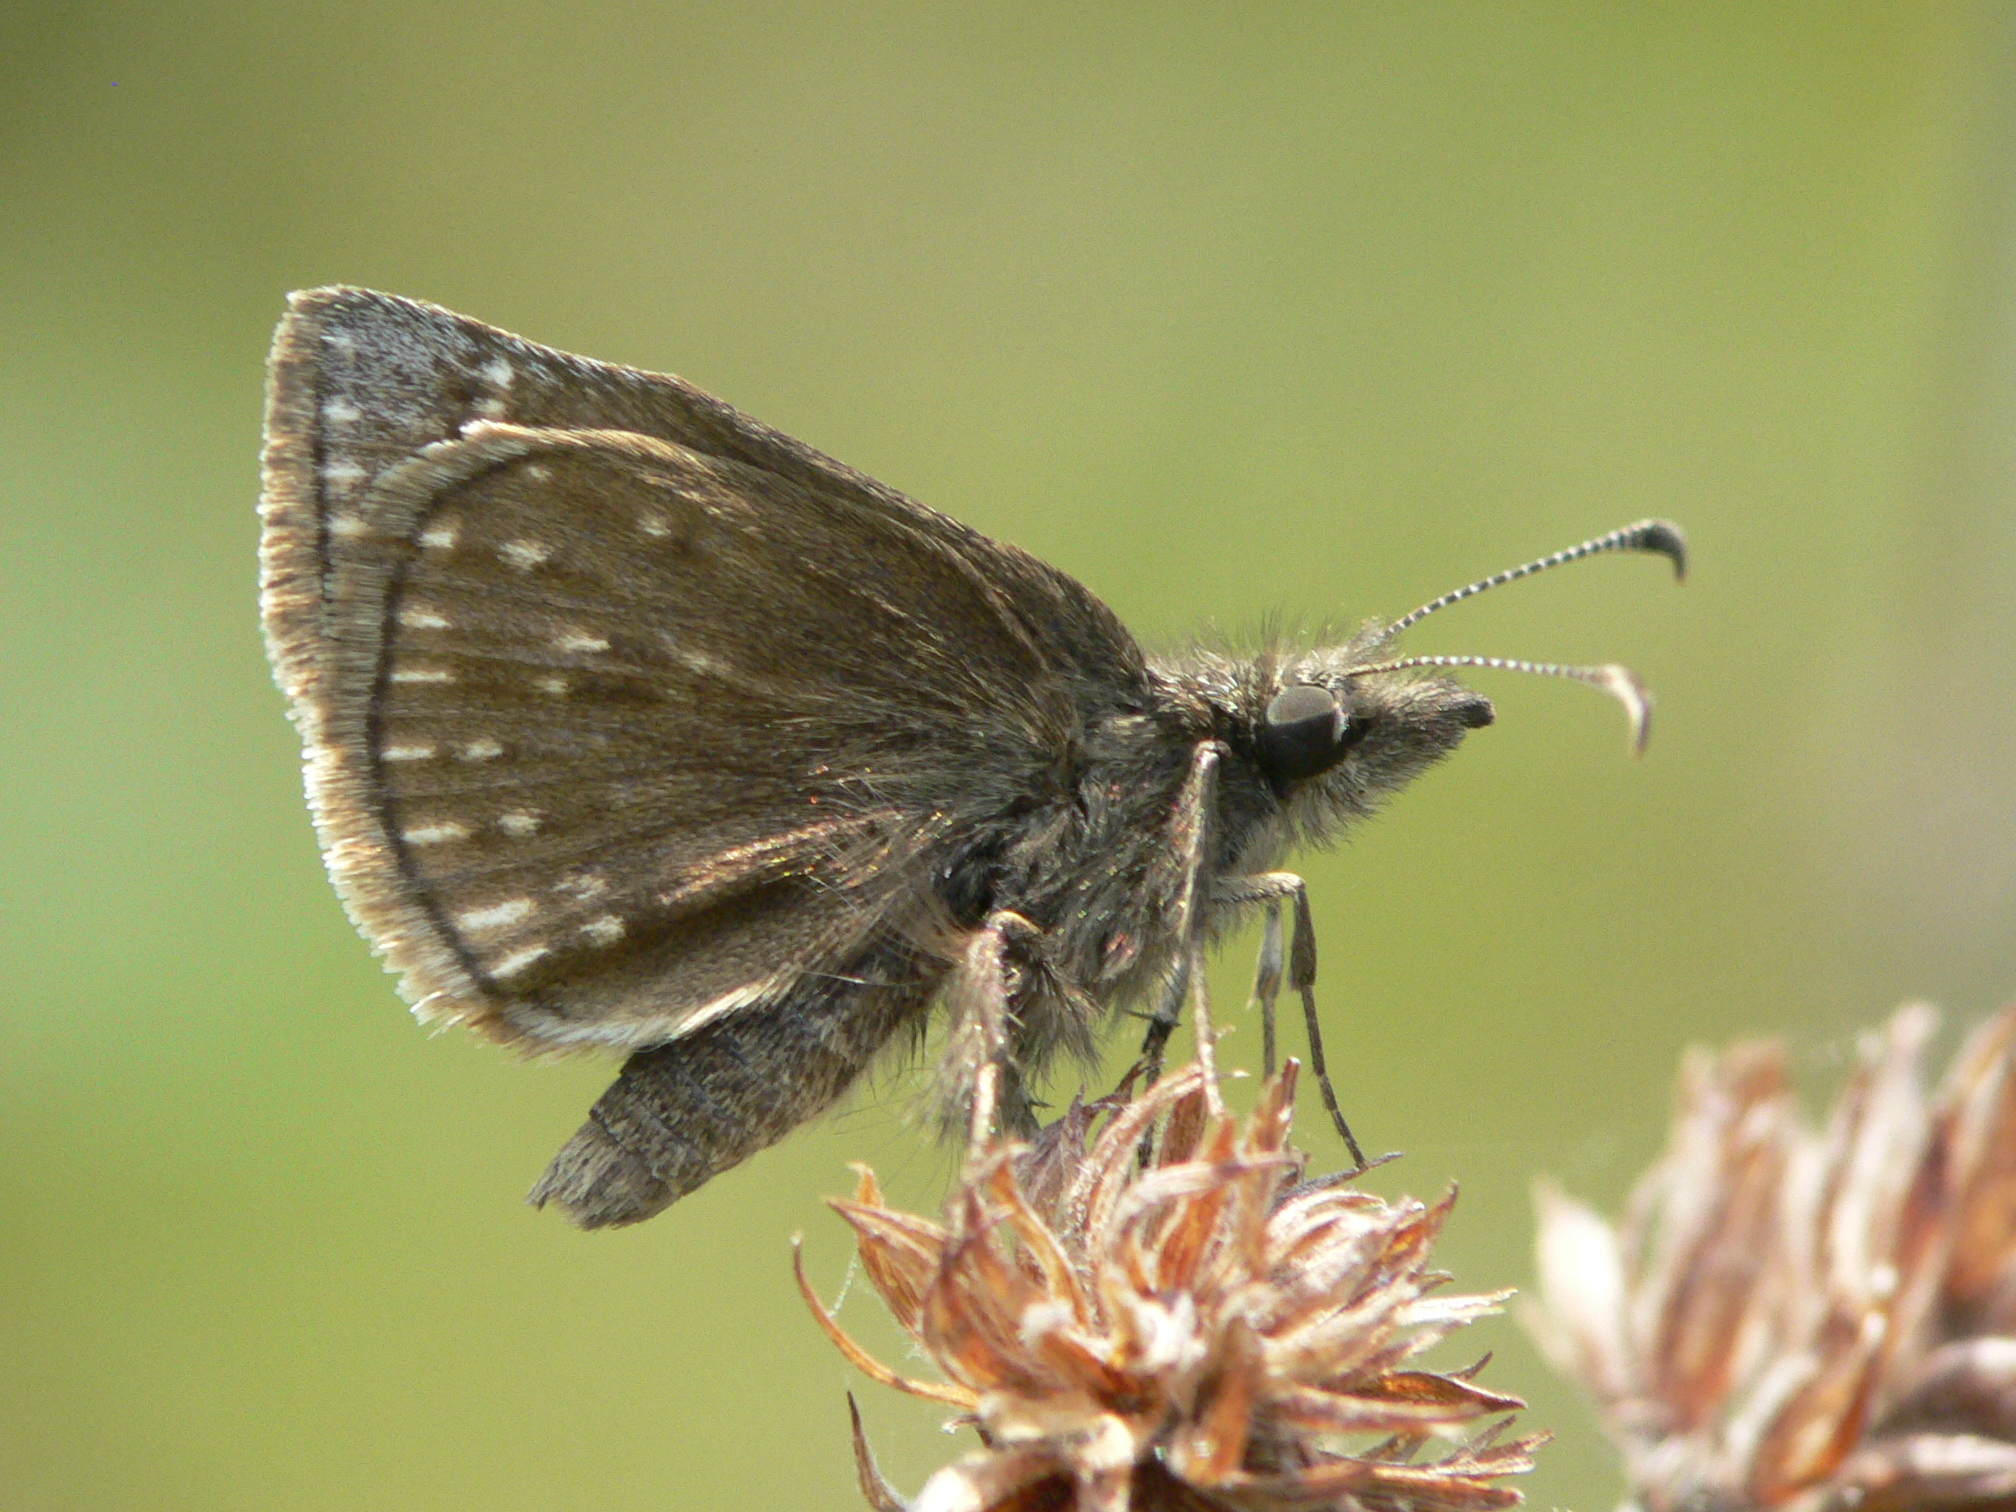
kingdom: Animalia
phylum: Arthropoda
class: Insecta
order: Lepidoptera
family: Hesperiidae
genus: Erynnis
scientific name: Erynnis icelus
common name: Dreamy duskywing
